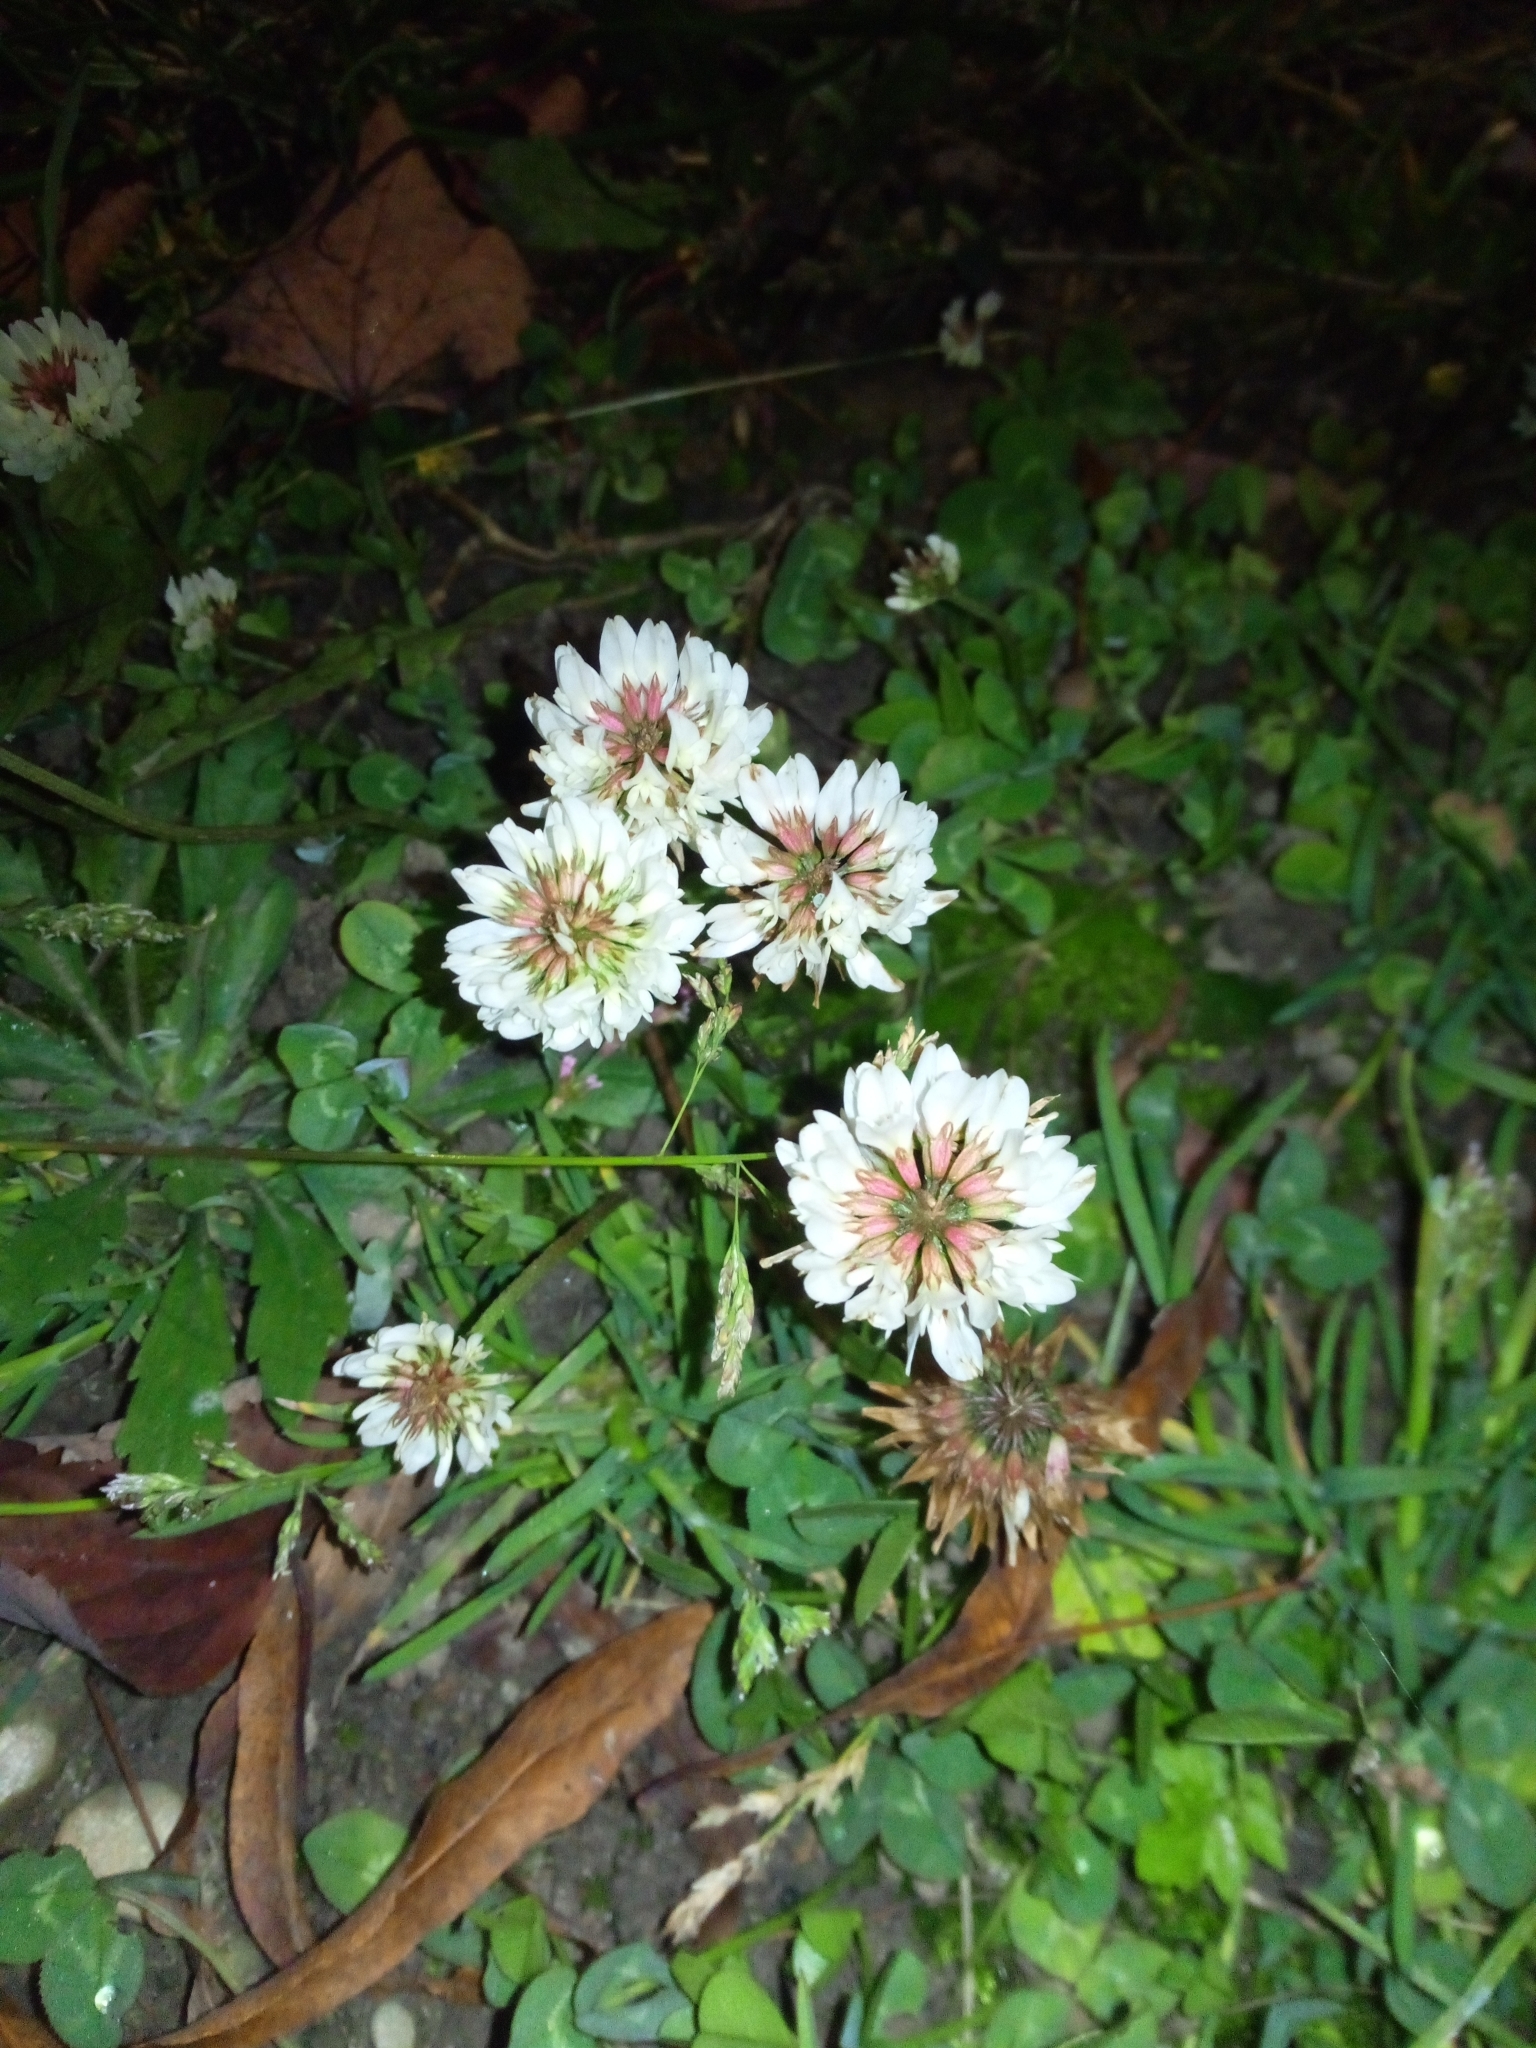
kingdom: Plantae
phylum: Tracheophyta
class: Magnoliopsida
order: Fabales
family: Fabaceae
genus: Trifolium
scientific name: Trifolium repens
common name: White clover
